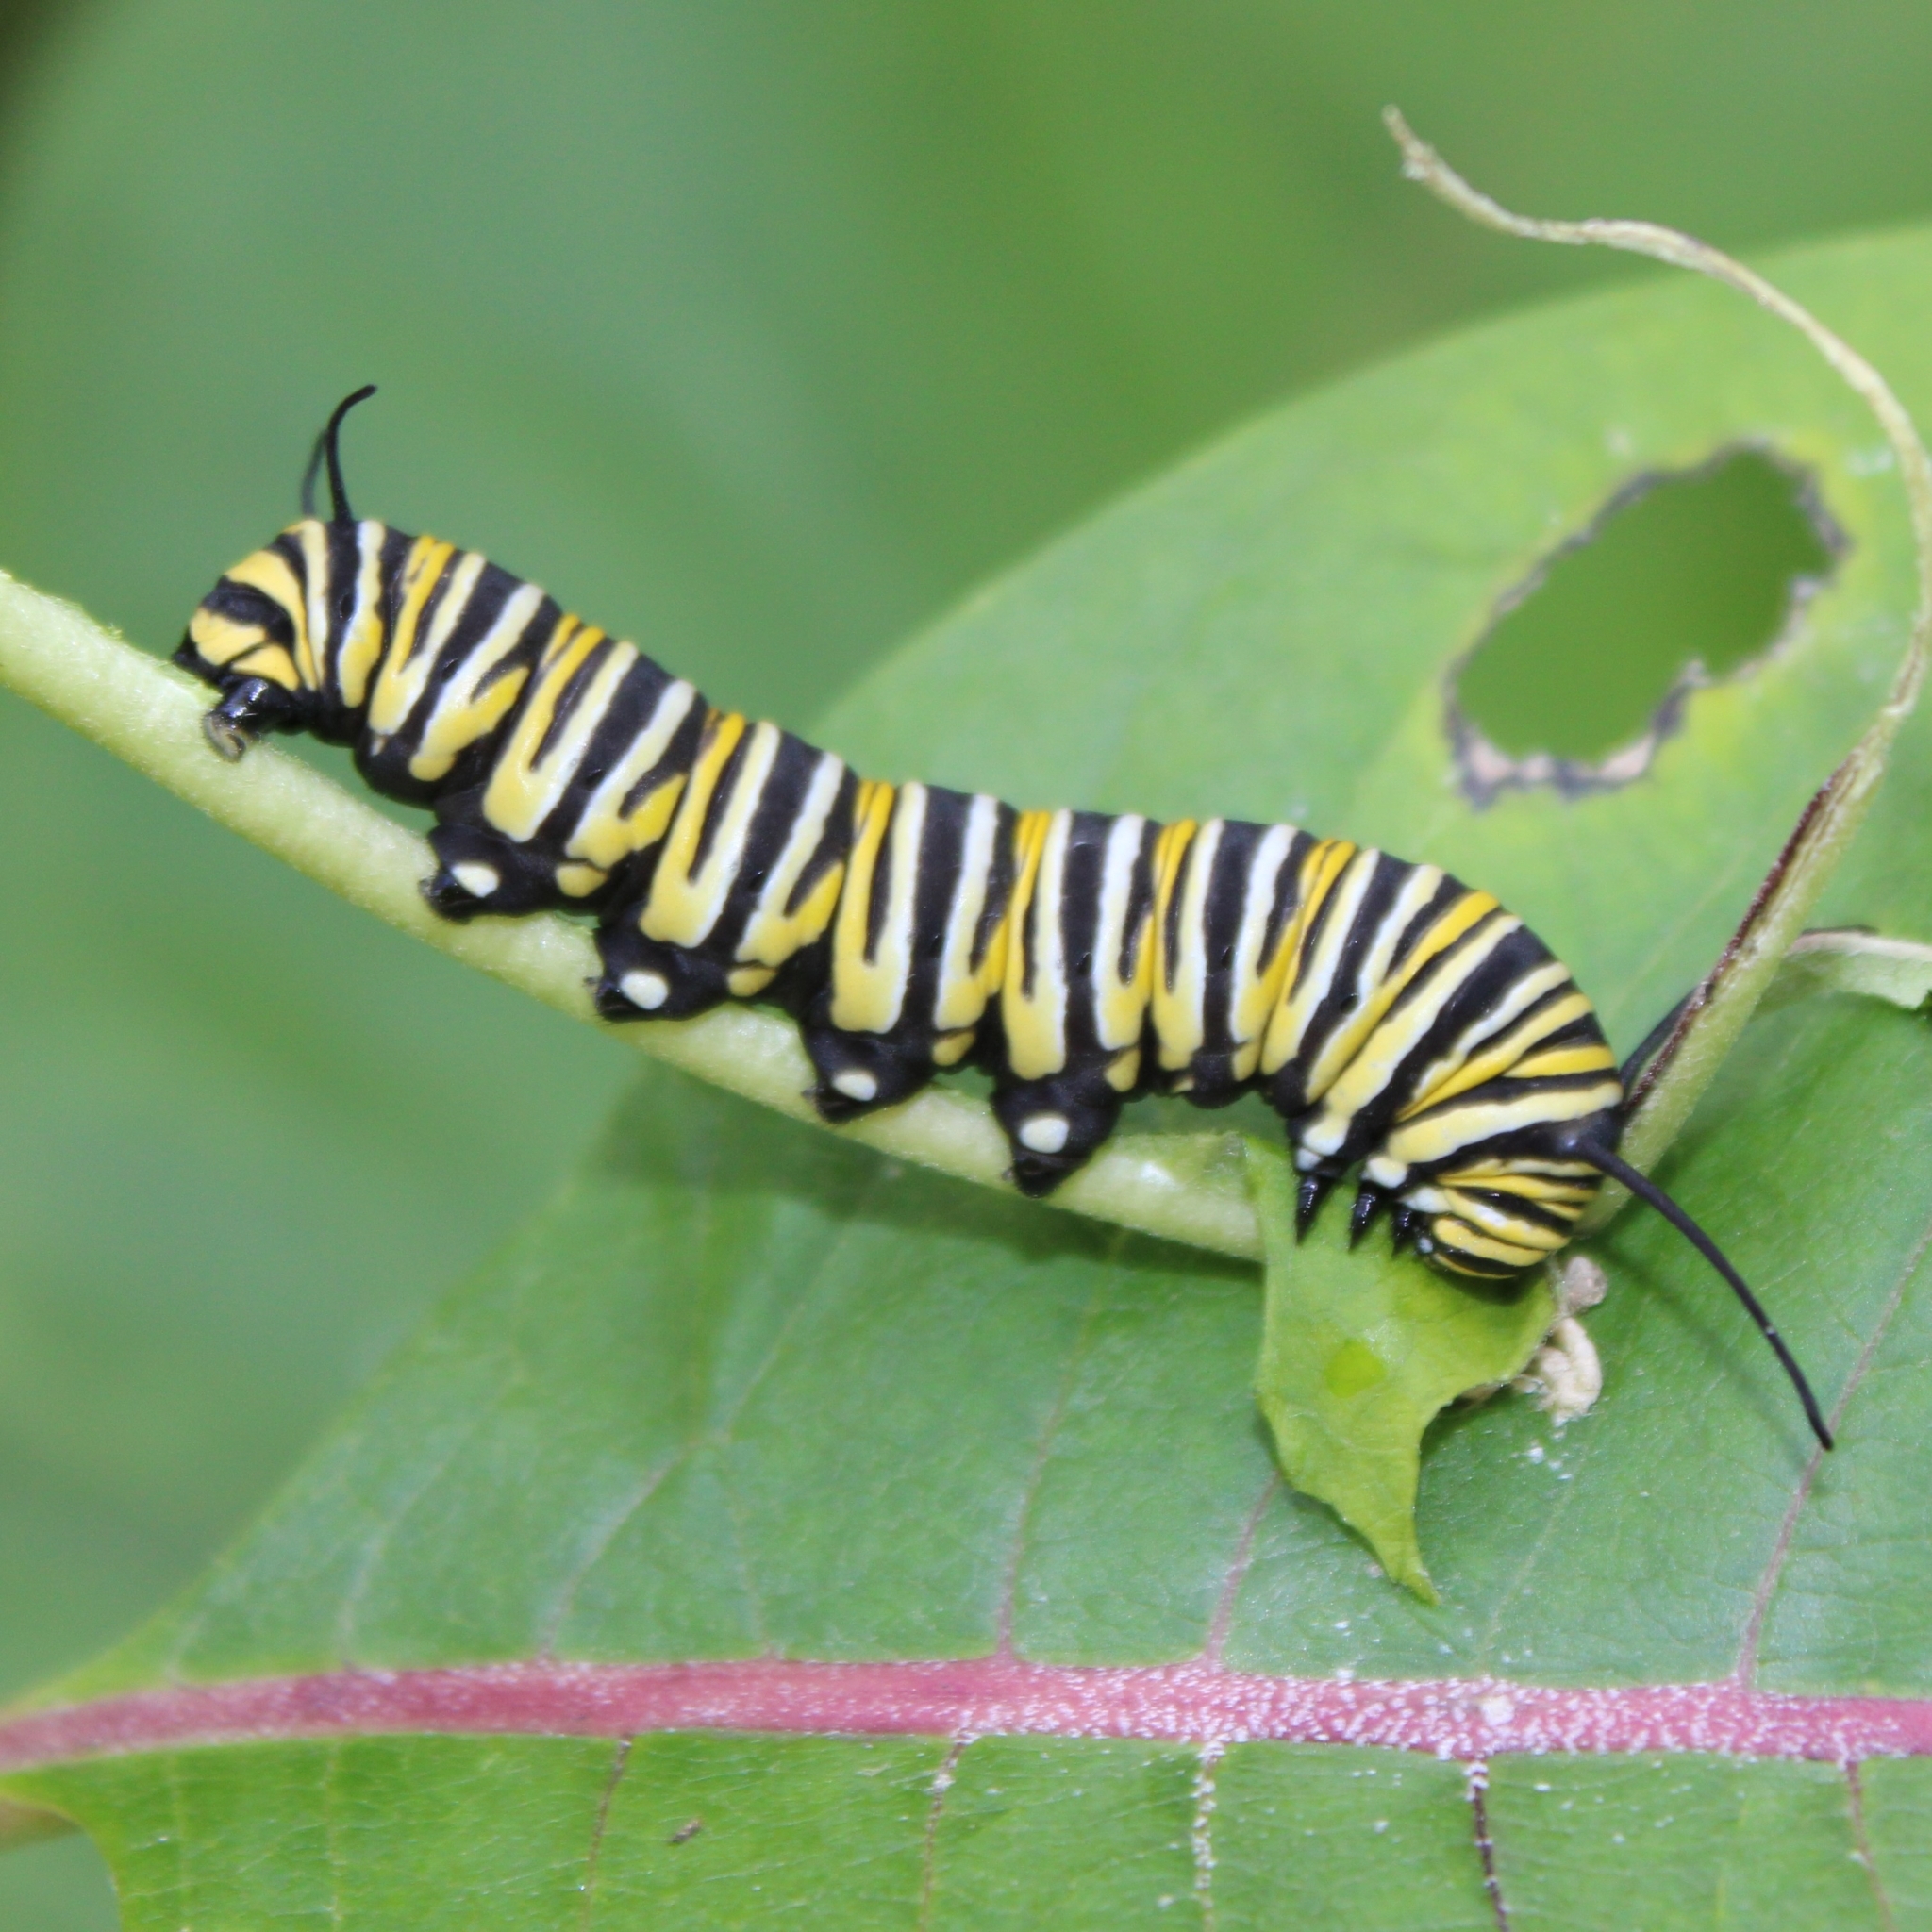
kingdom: Animalia
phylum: Arthropoda
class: Insecta
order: Lepidoptera
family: Nymphalidae
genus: Danaus
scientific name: Danaus plexippus
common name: Monarch
